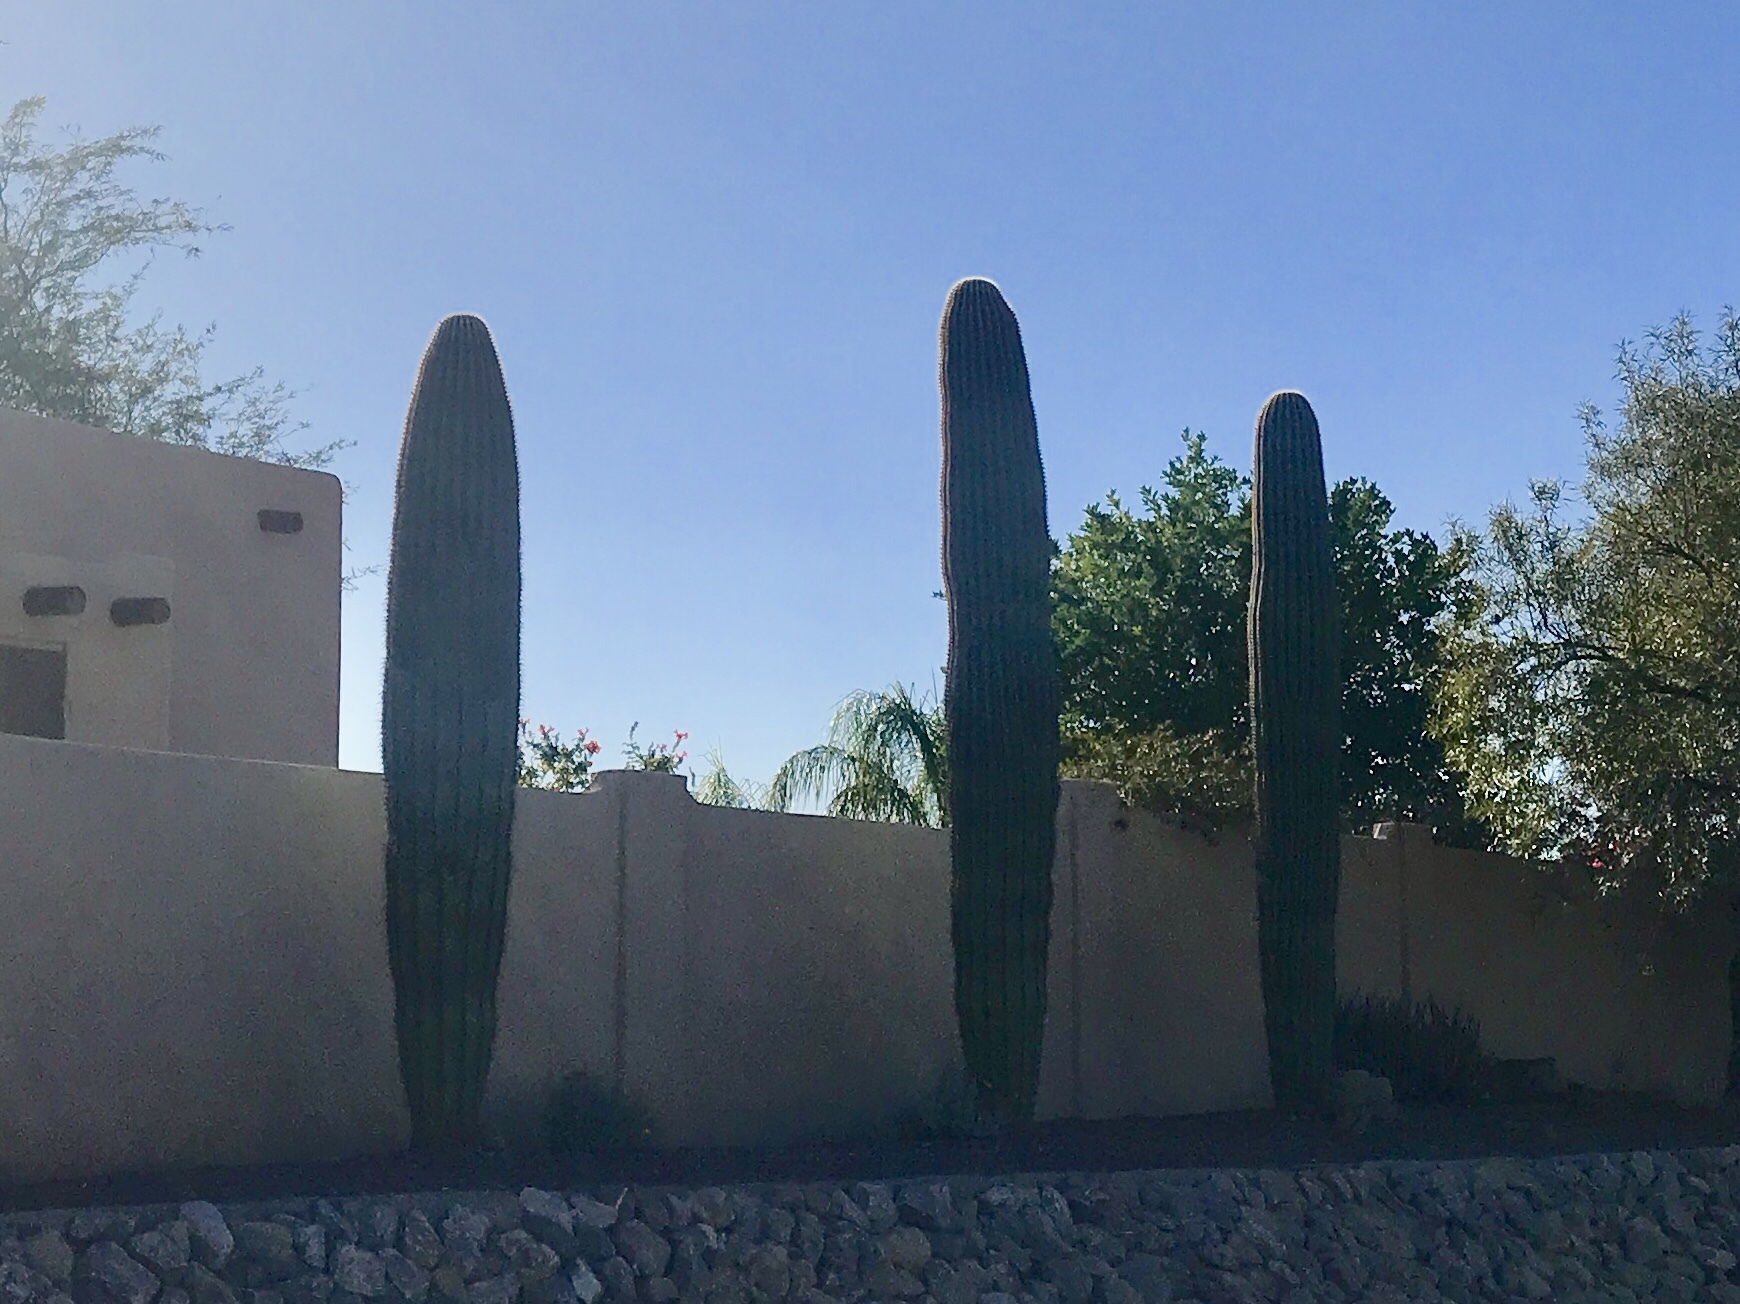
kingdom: Plantae
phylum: Tracheophyta
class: Magnoliopsida
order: Caryophyllales
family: Cactaceae
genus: Carnegiea
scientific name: Carnegiea gigantea
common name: Saguaro
